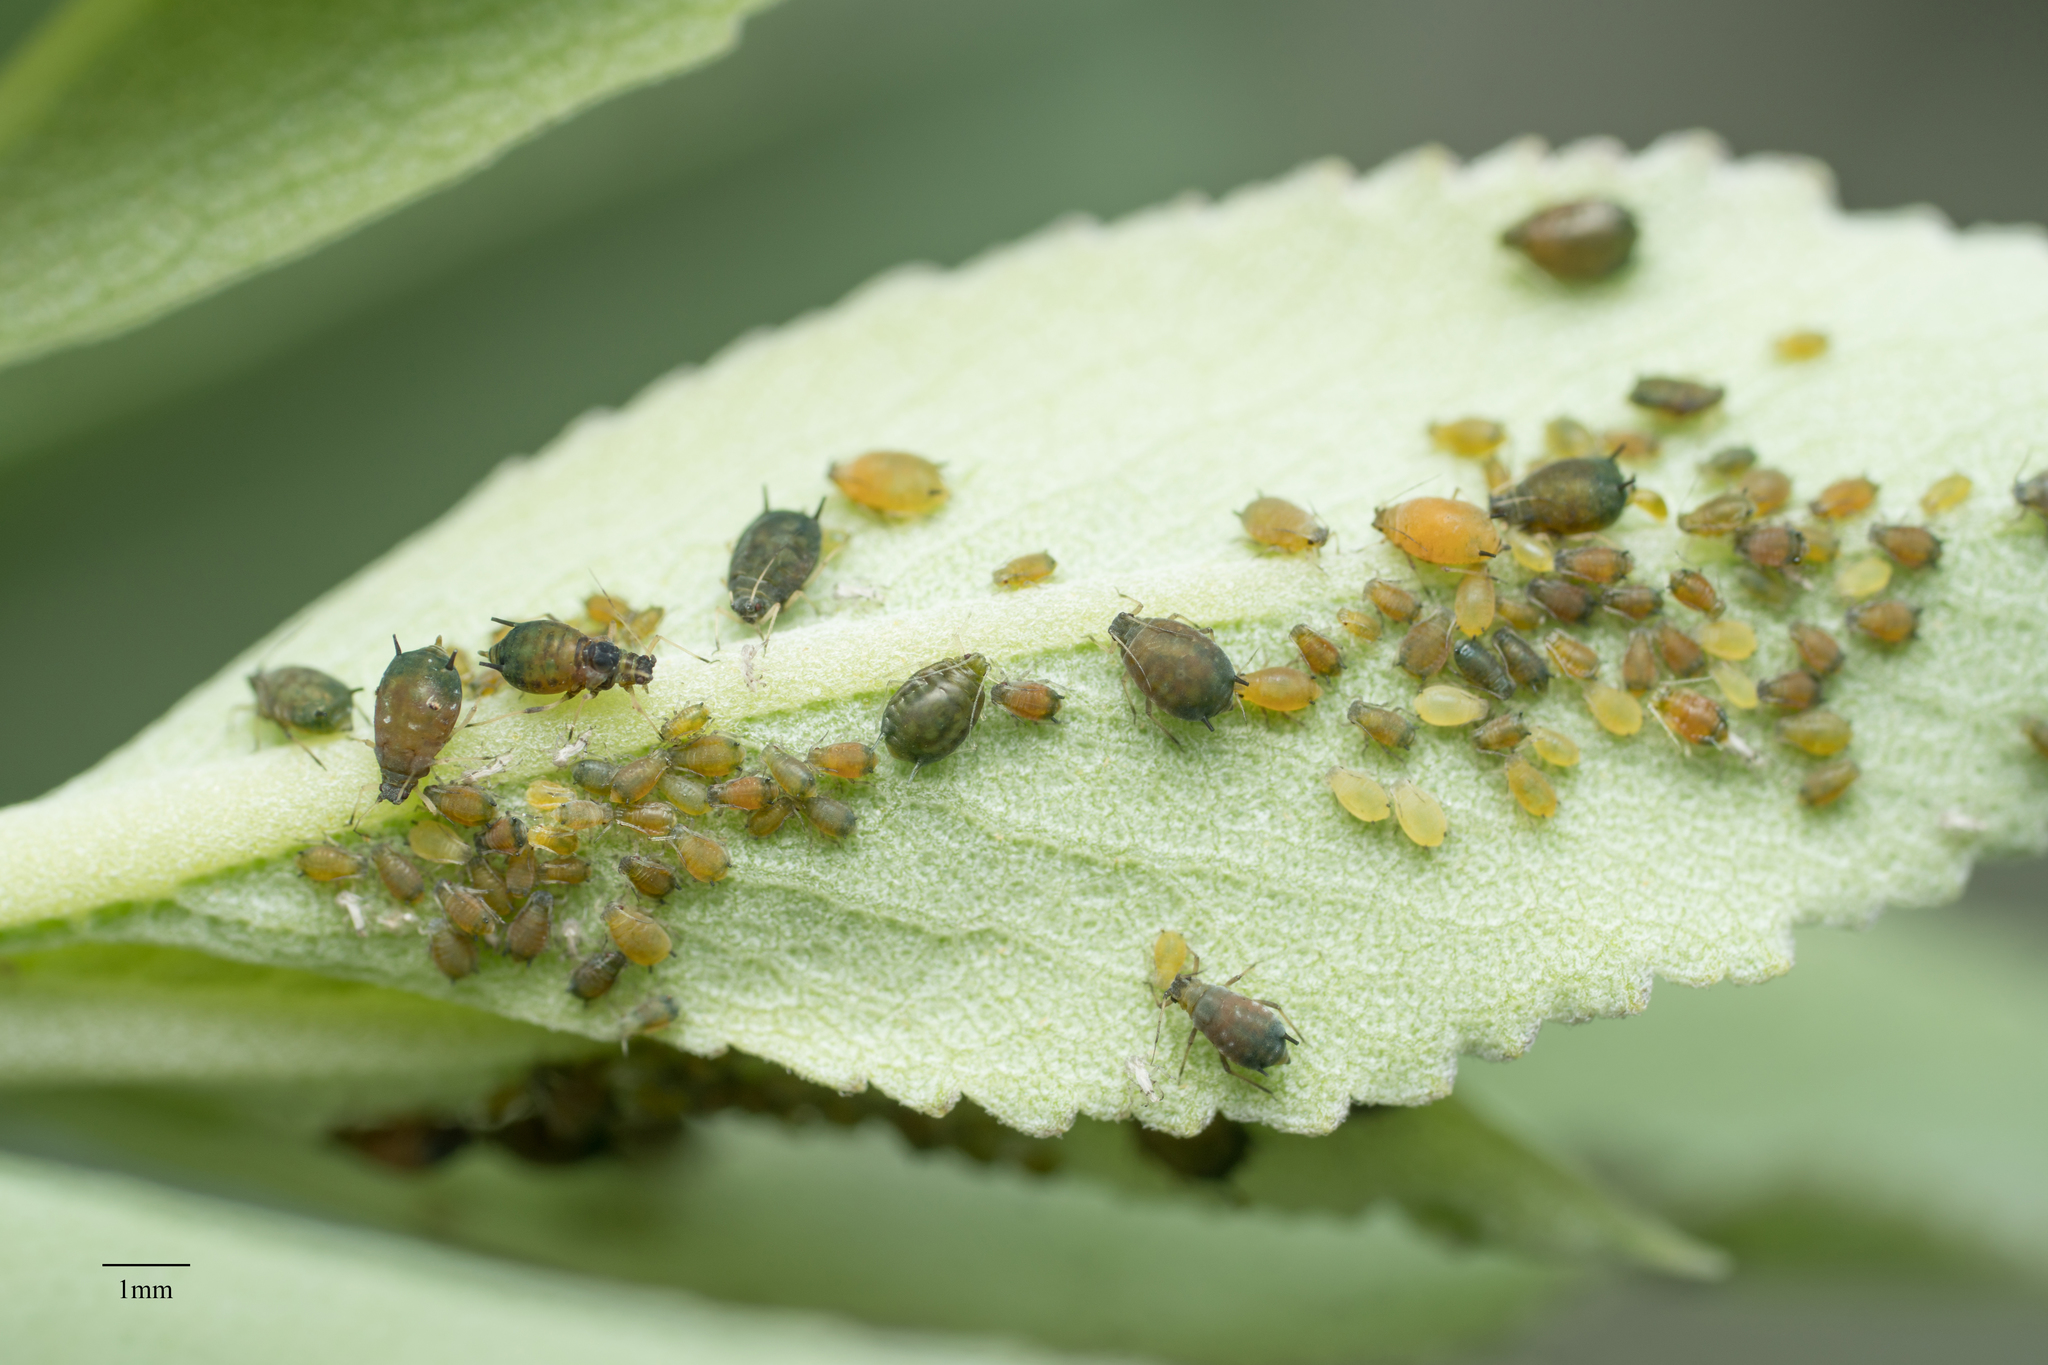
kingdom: Animalia
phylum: Arthropoda
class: Insecta
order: Hemiptera
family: Aphididae
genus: Aphis
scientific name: Aphis gossypii
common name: Melon aphid
